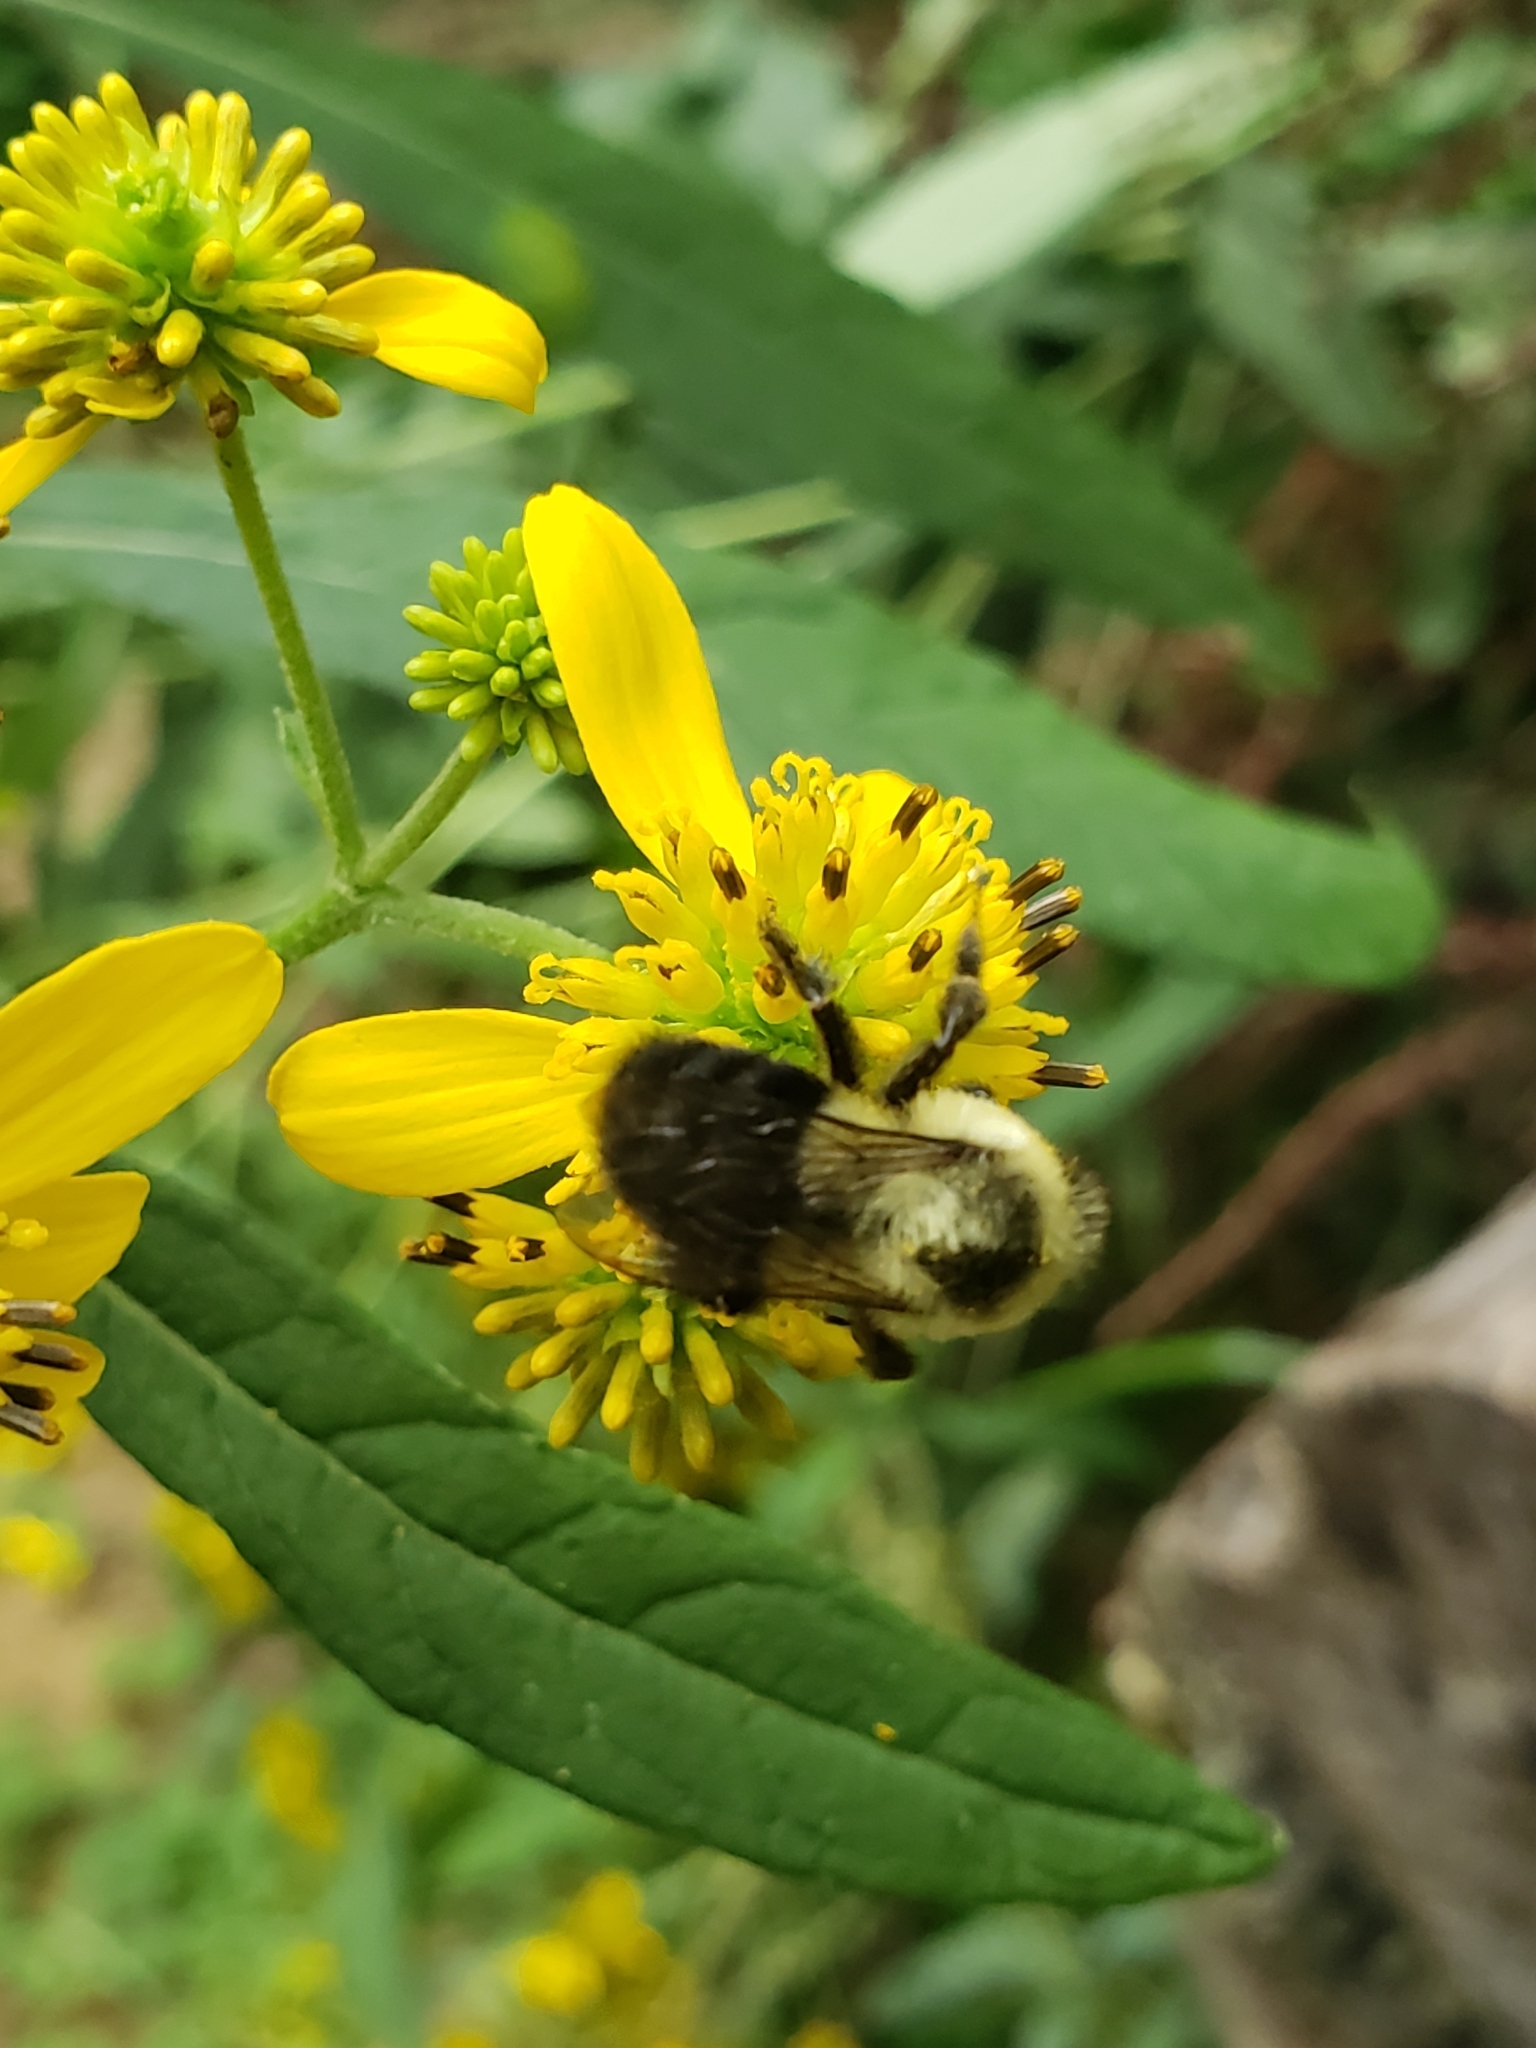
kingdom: Animalia
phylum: Arthropoda
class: Insecta
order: Hymenoptera
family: Apidae
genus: Bombus
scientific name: Bombus impatiens
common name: Common eastern bumble bee
